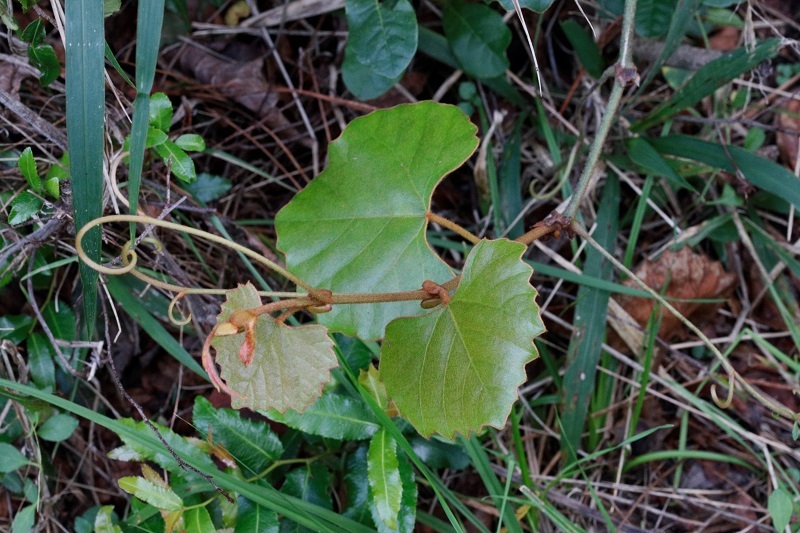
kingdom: Plantae
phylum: Tracheophyta
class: Magnoliopsida
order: Vitales
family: Vitaceae
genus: Rhoicissus
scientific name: Rhoicissus tomentosa
